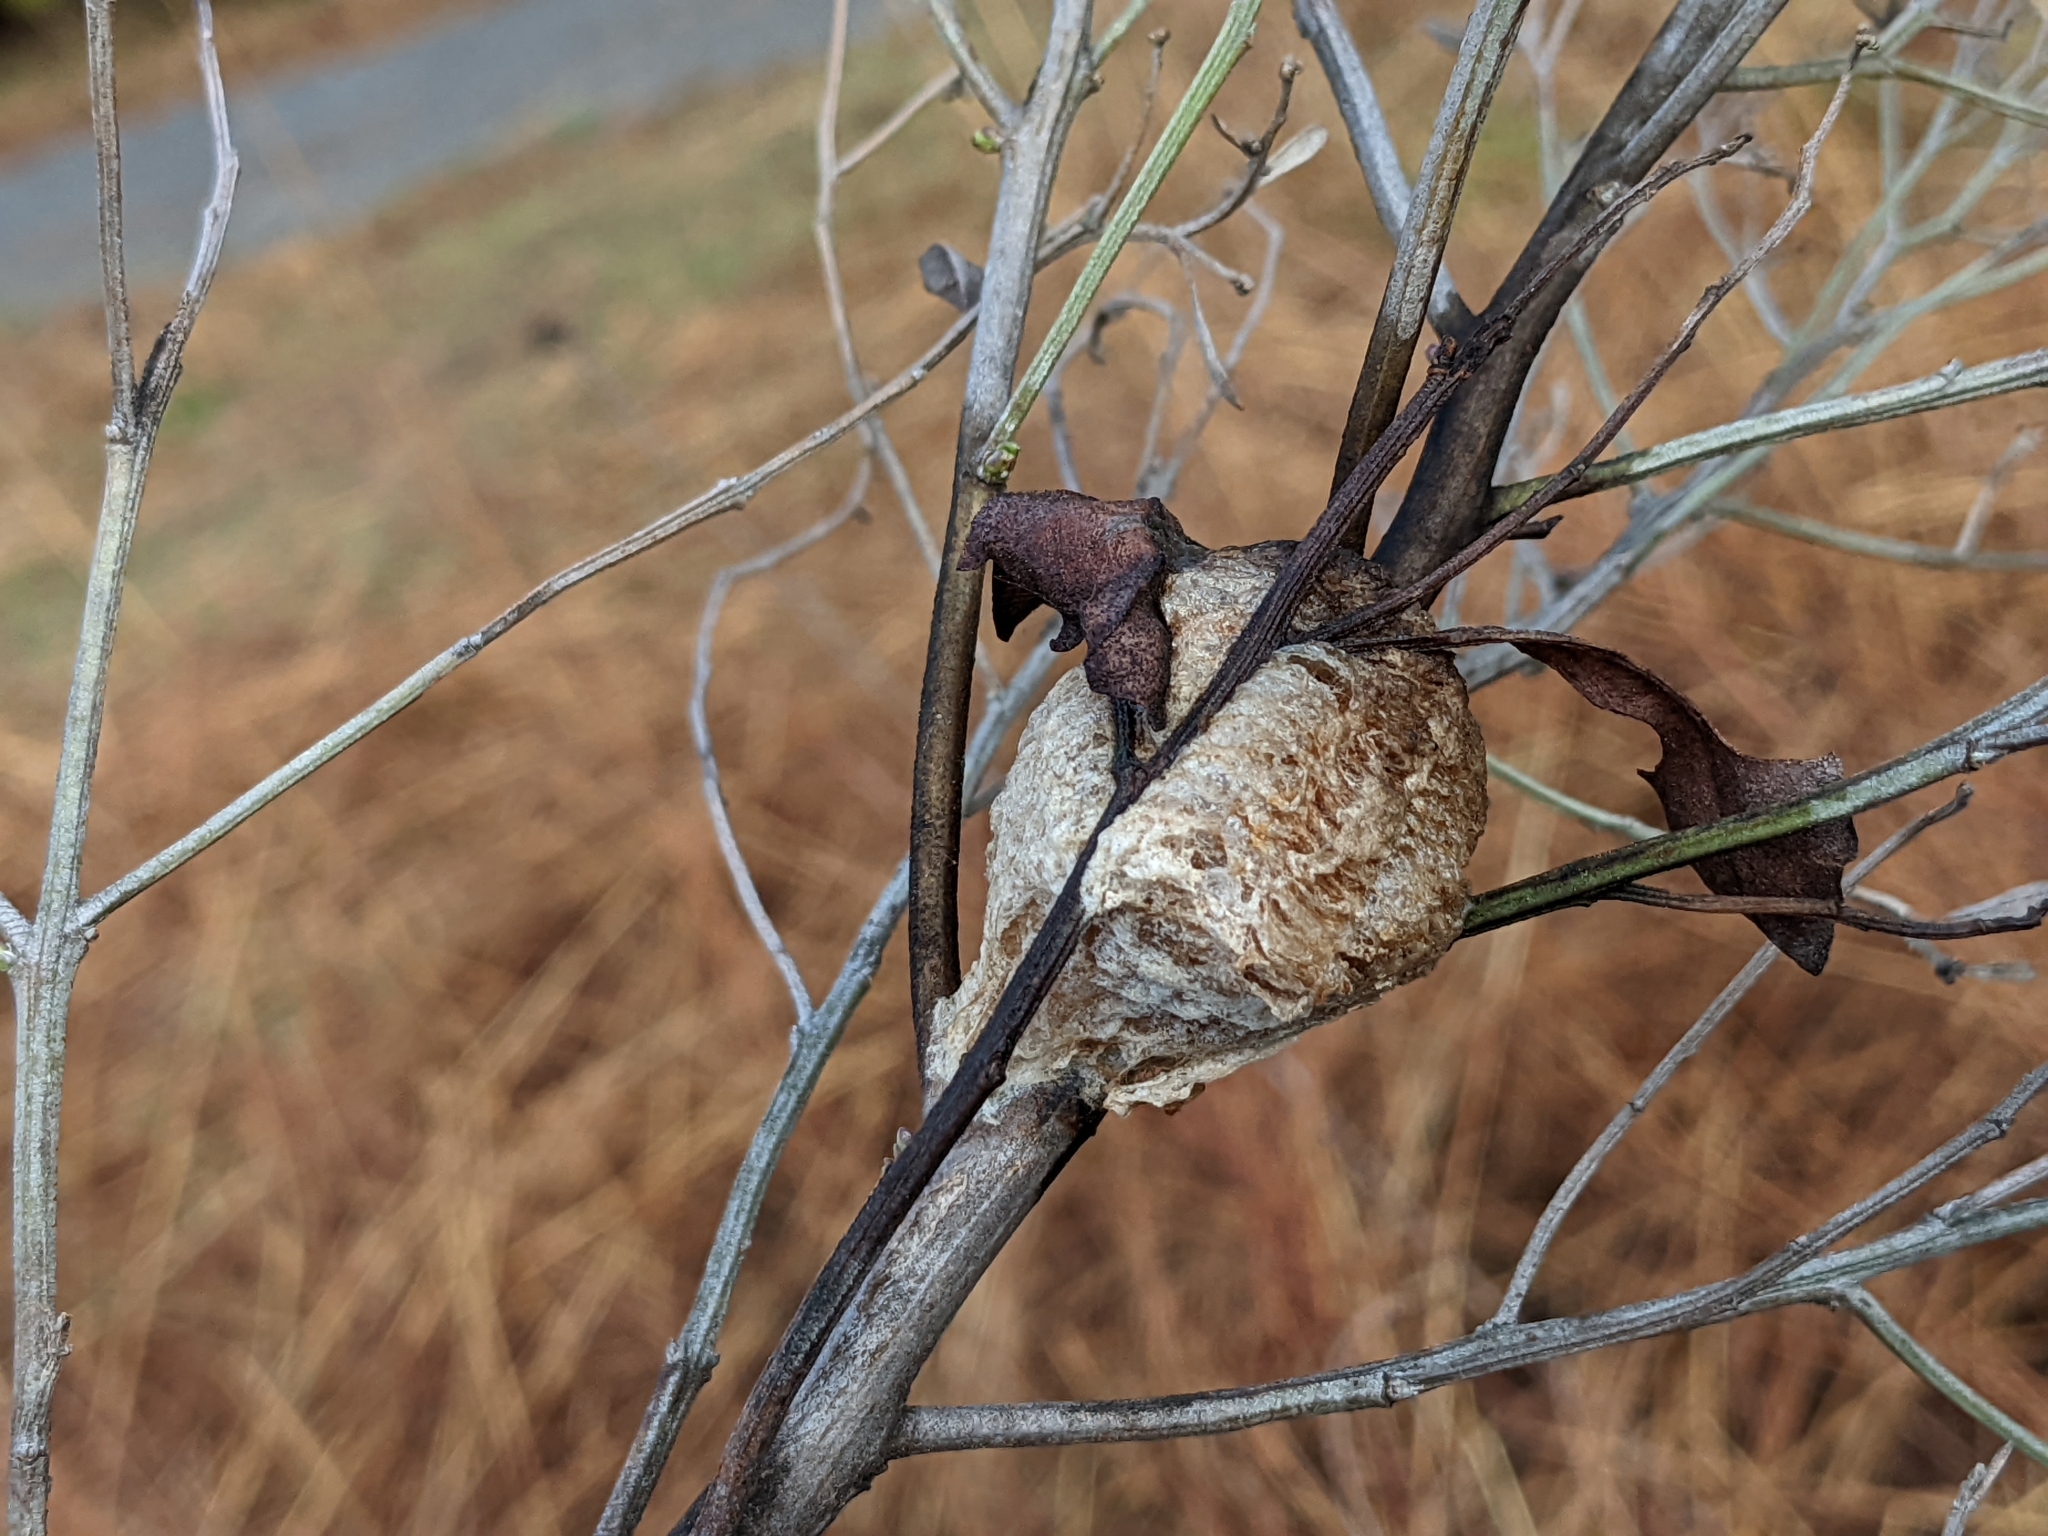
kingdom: Animalia
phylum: Arthropoda
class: Insecta
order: Mantodea
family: Mantidae
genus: Tenodera
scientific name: Tenodera sinensis
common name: Chinese mantis
